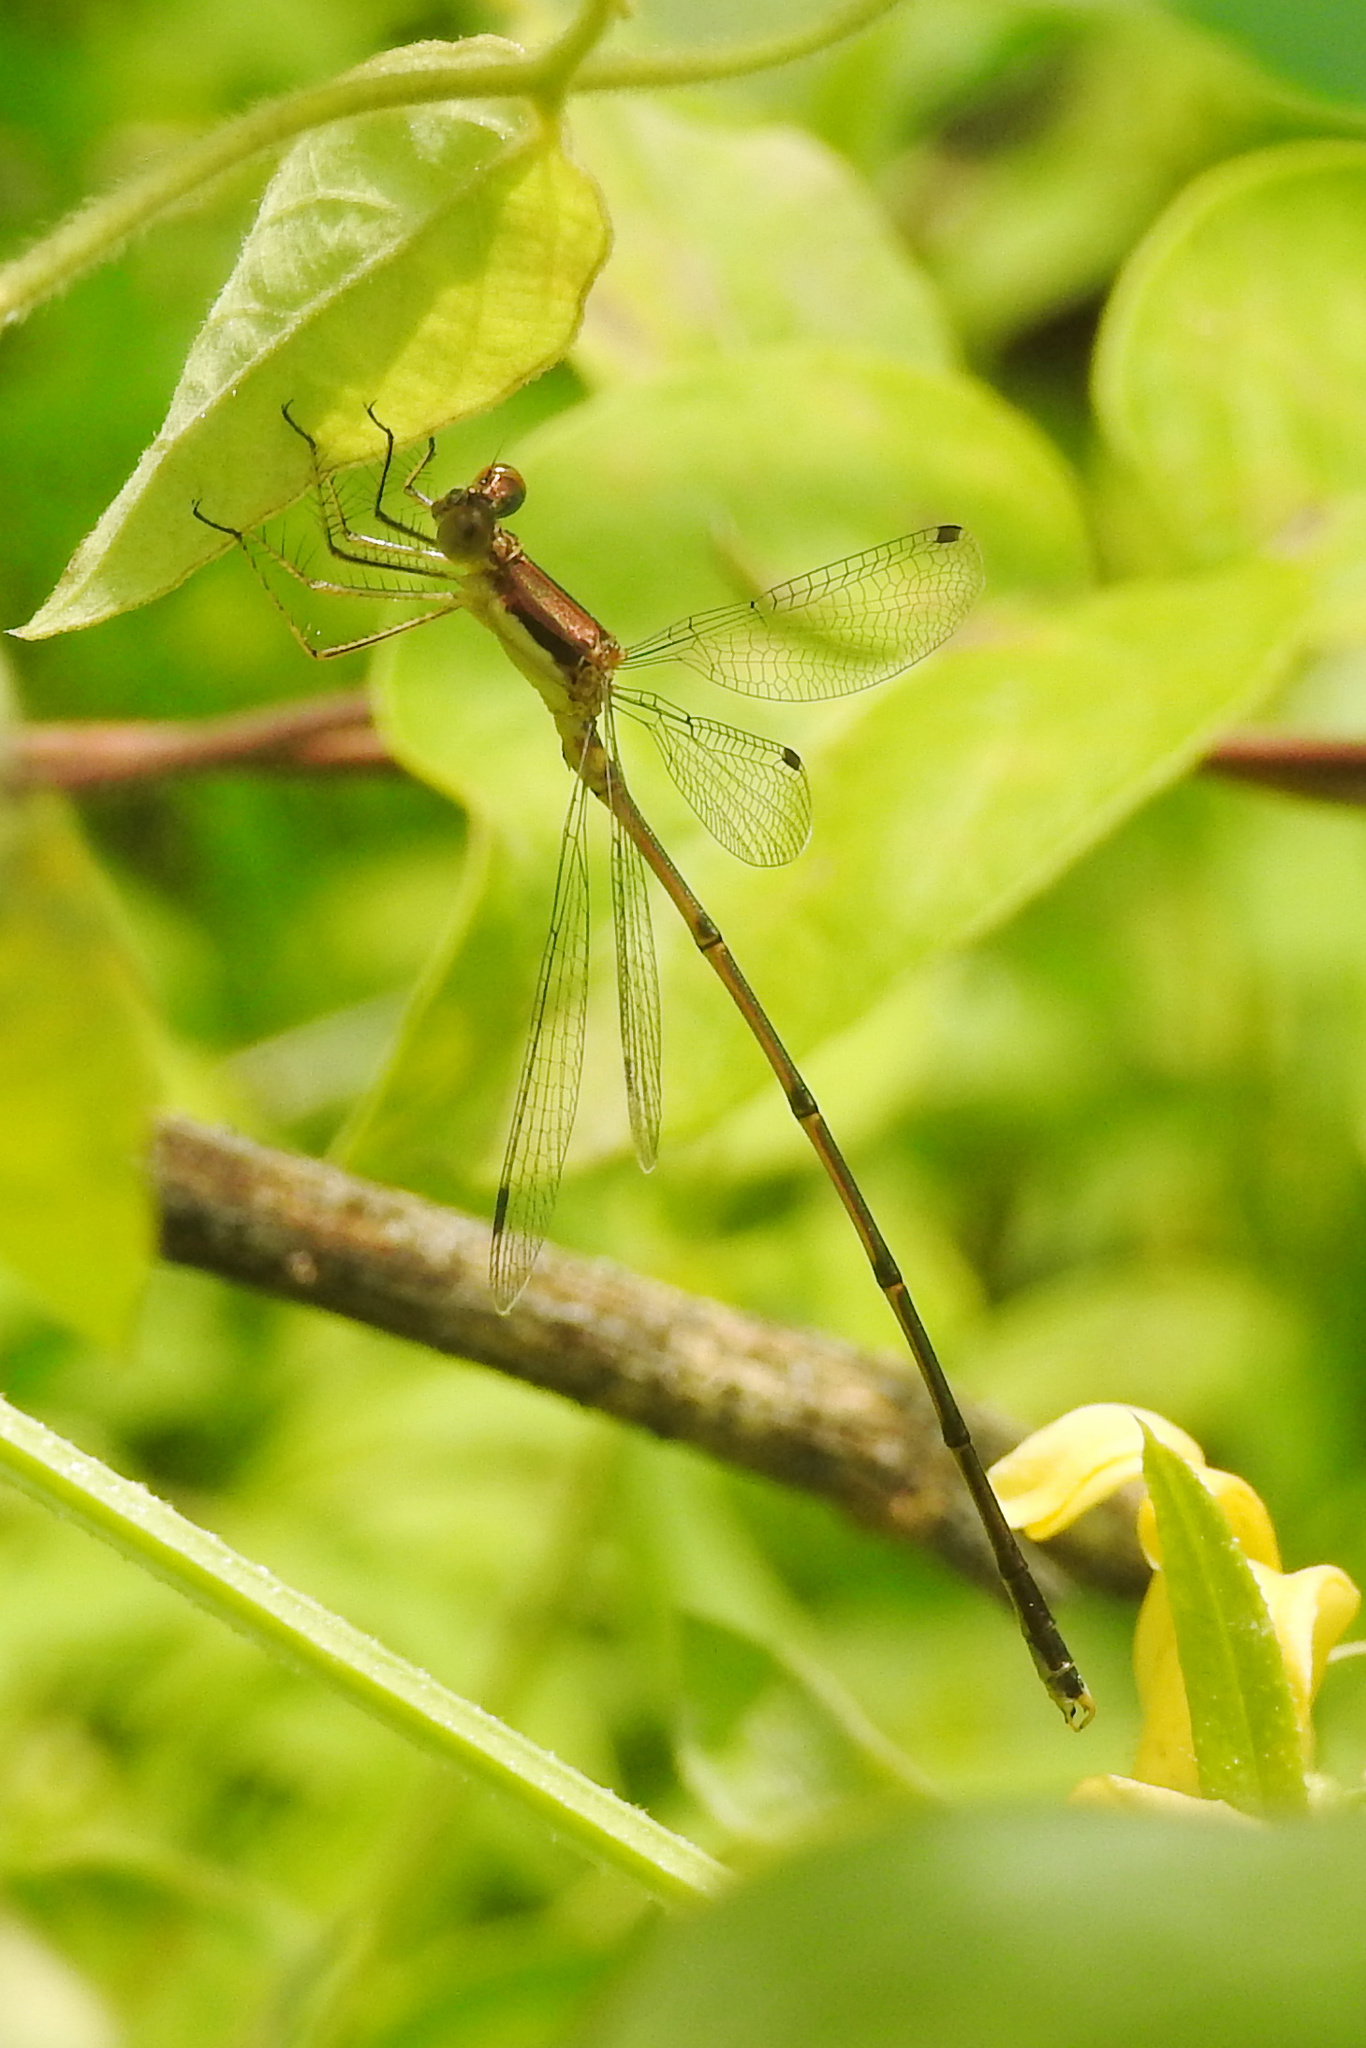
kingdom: Animalia
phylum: Arthropoda
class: Insecta
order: Odonata
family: Lestidae
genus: Lestes
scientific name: Lestes rectangularis
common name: Slender spreadwing
